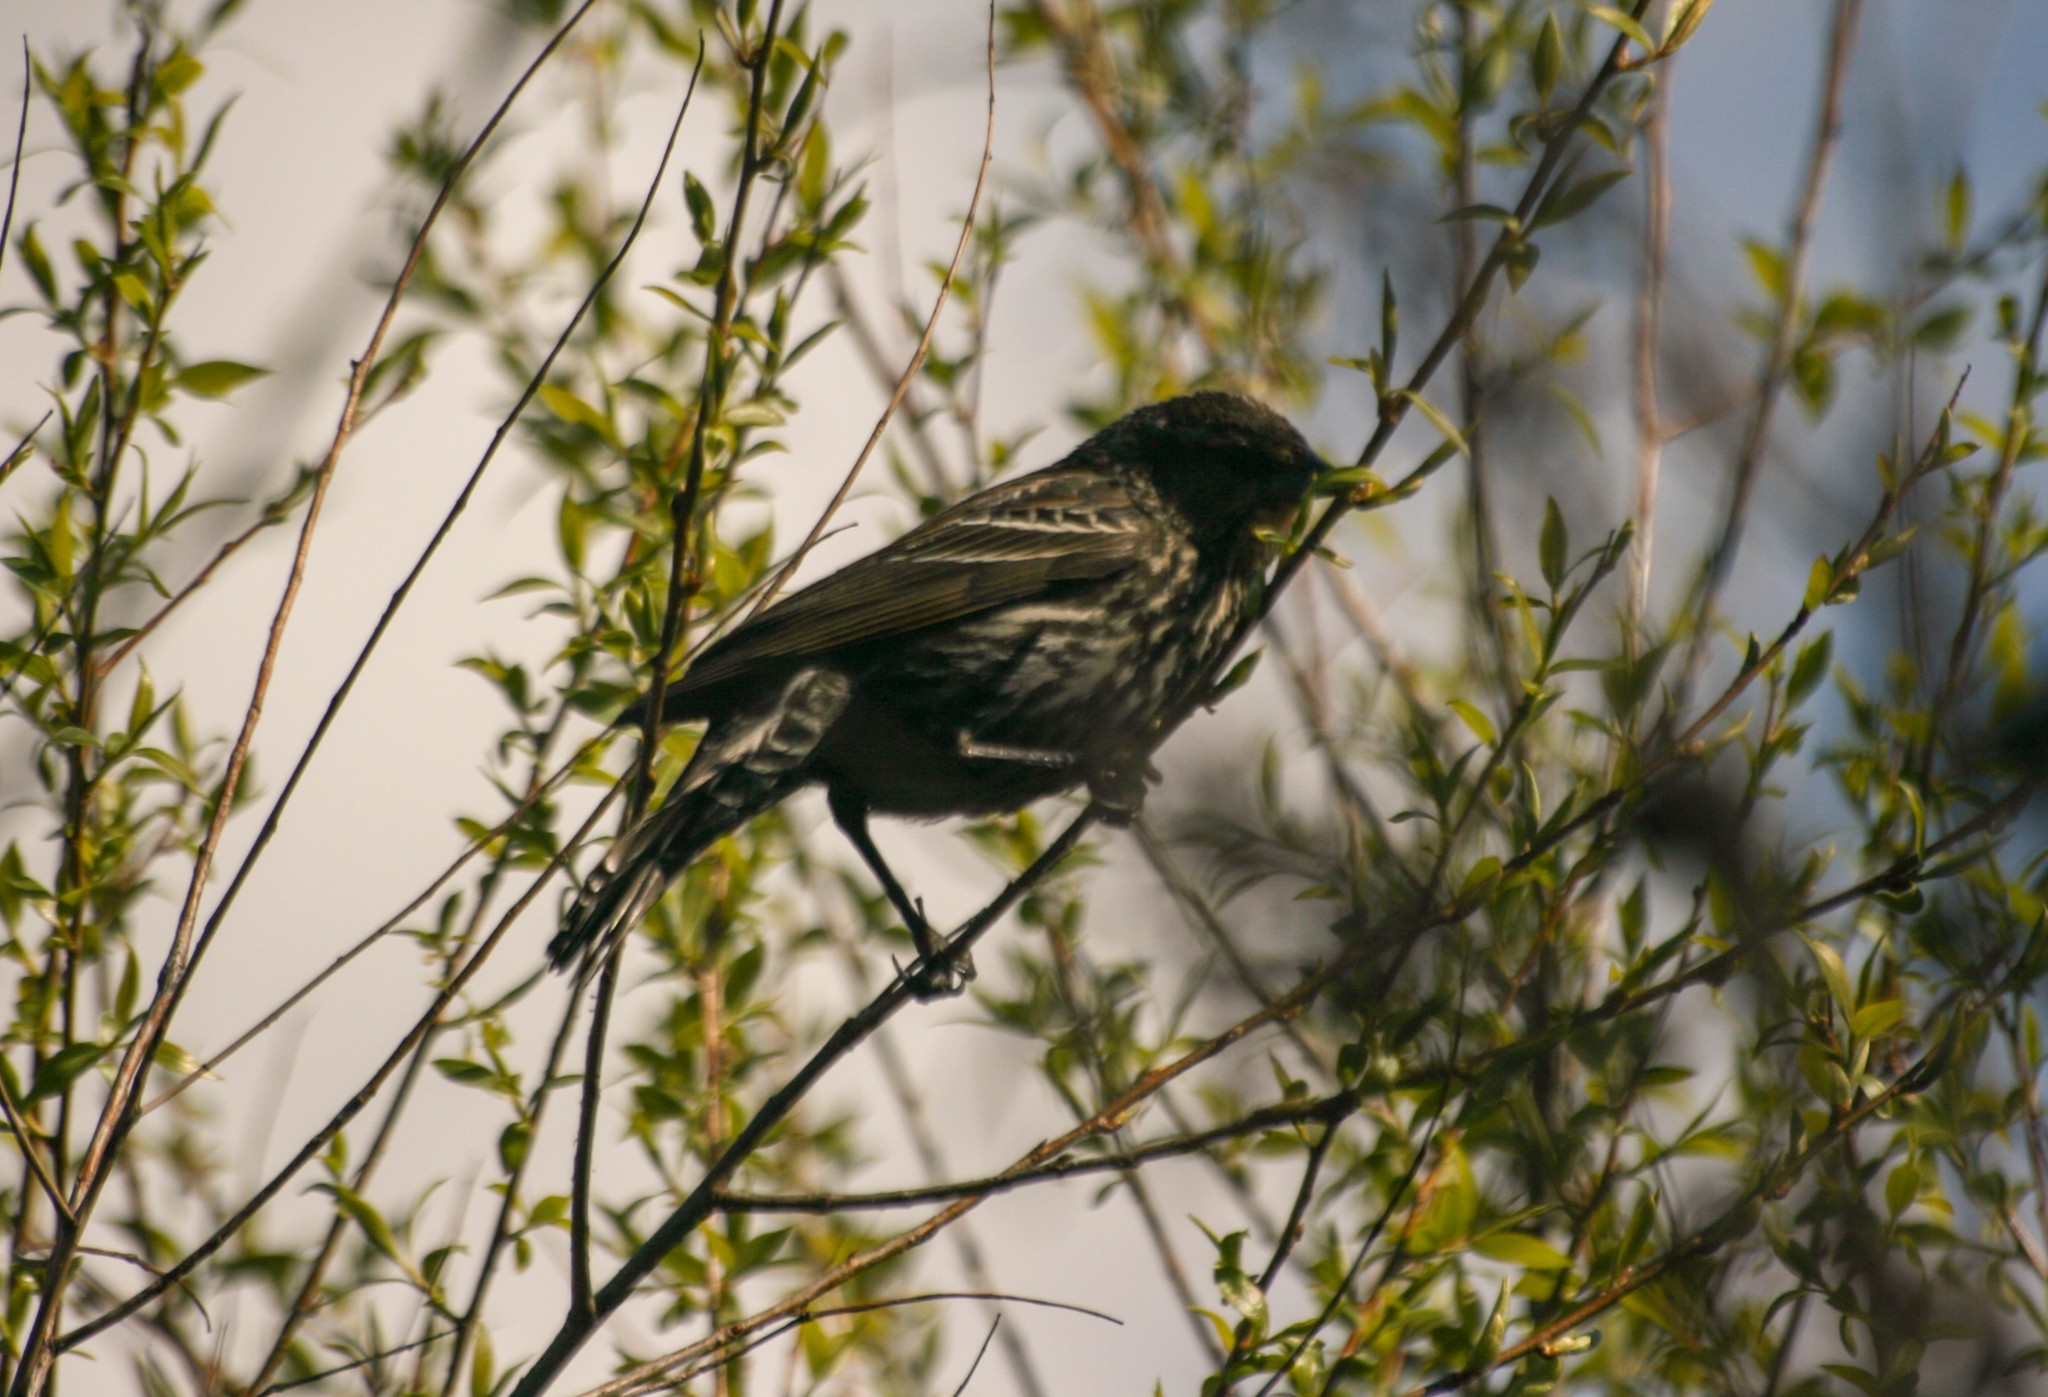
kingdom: Animalia
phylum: Chordata
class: Aves
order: Passeriformes
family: Icteridae
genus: Agelaius
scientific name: Agelaius phoeniceus
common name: Red-winged blackbird
